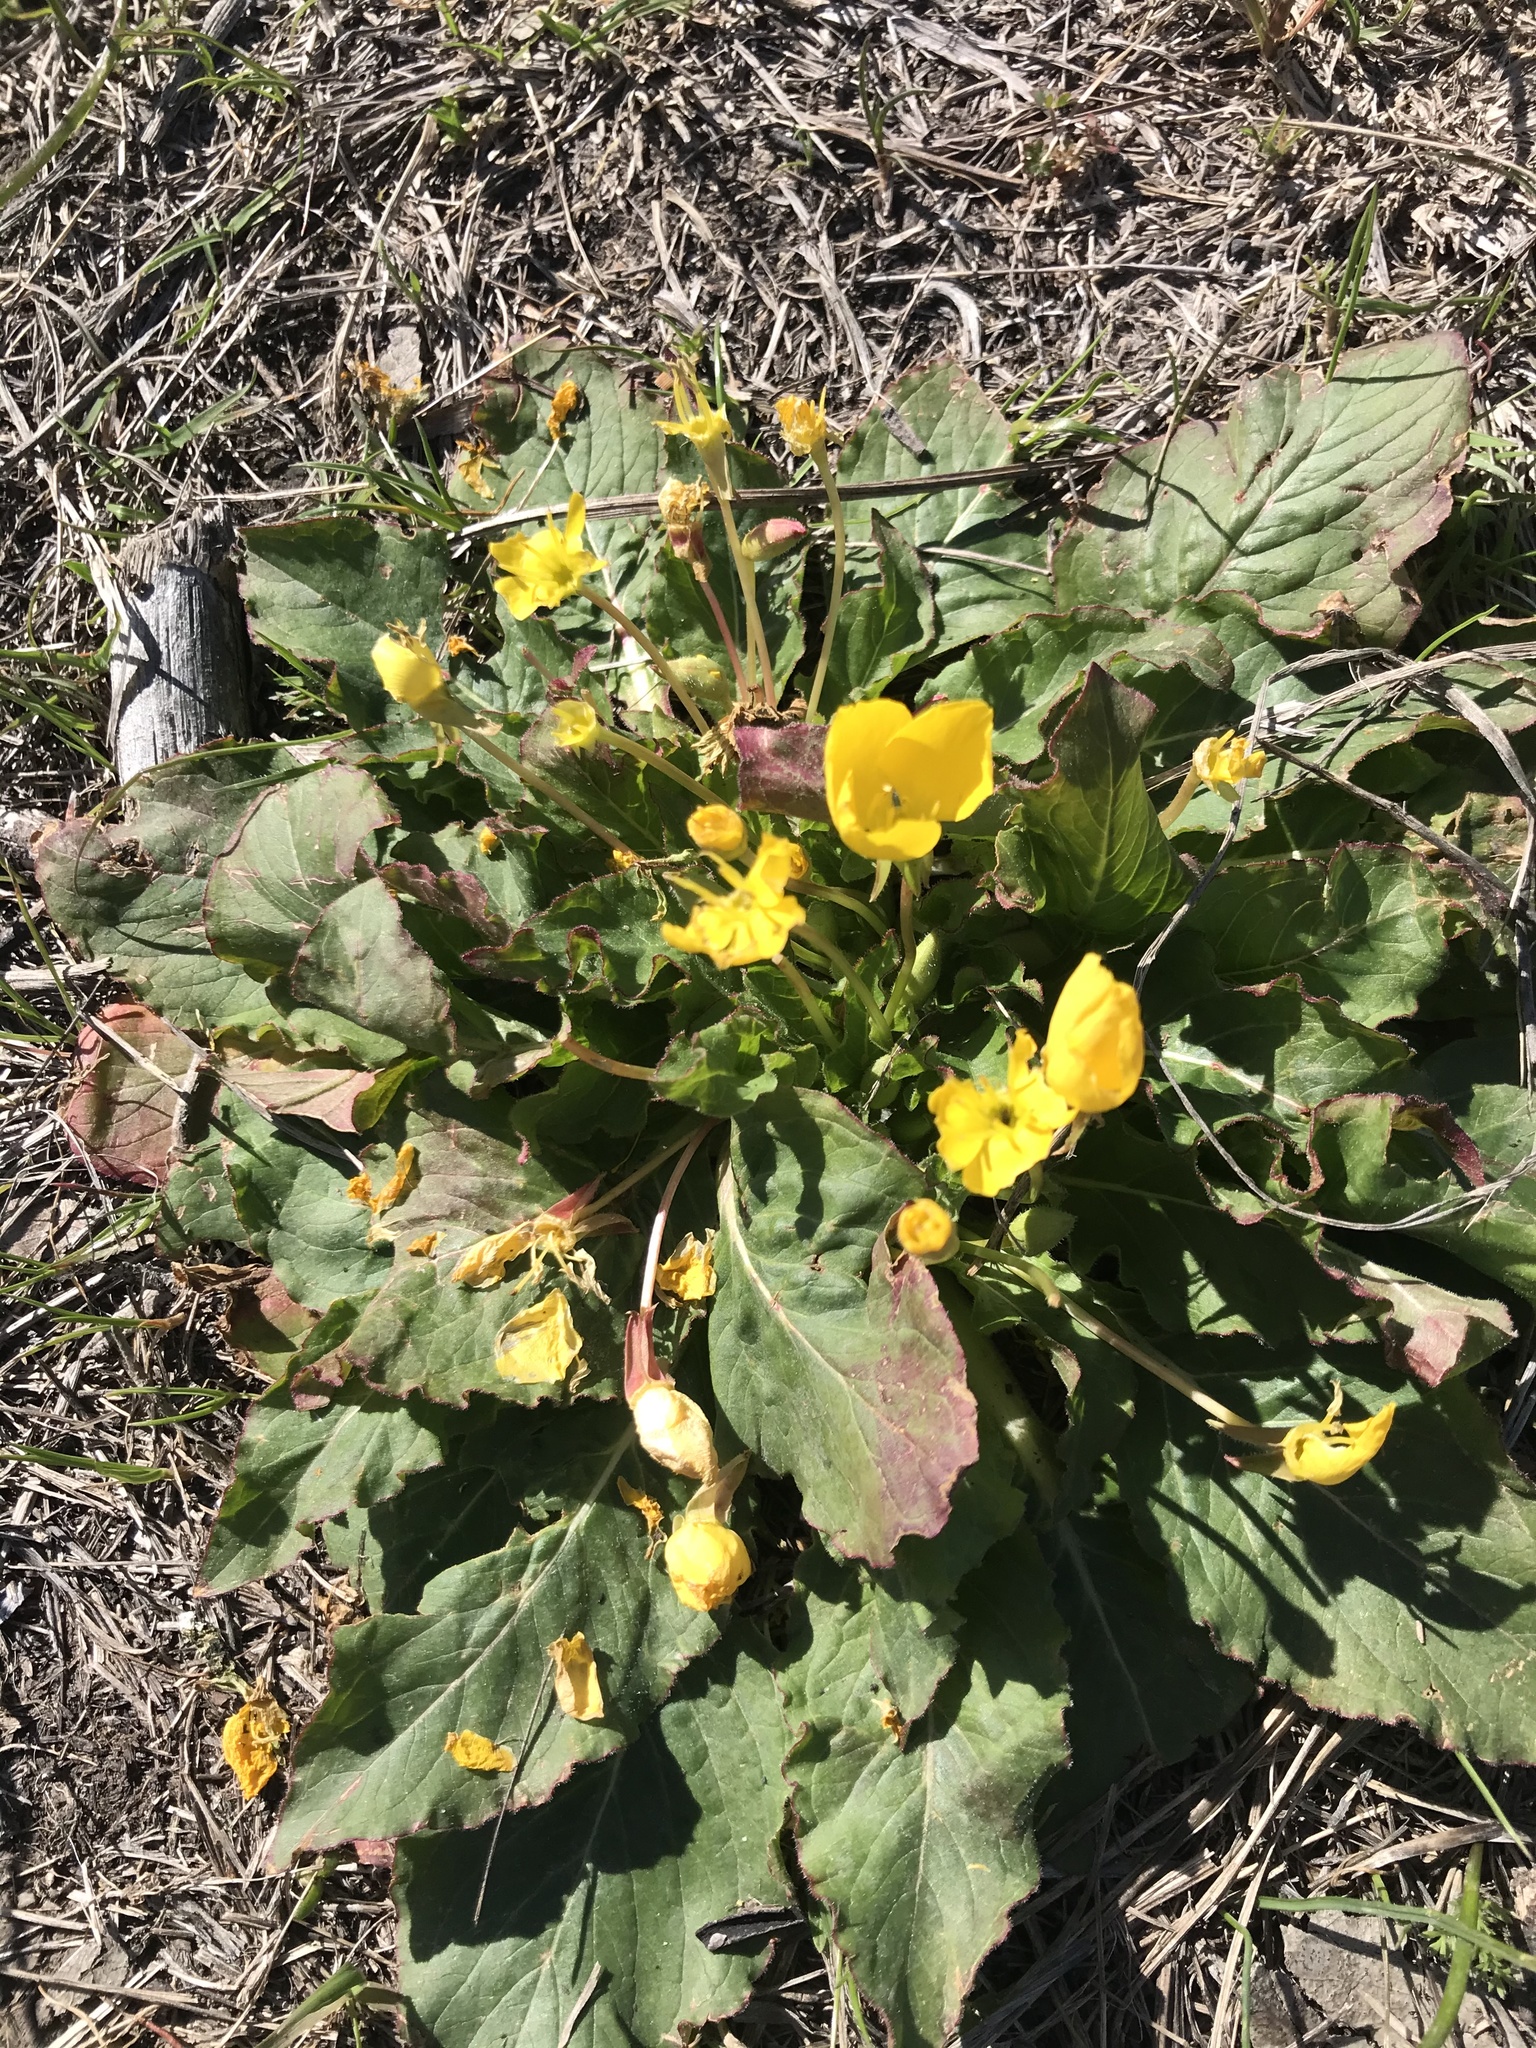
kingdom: Plantae
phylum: Tracheophyta
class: Magnoliopsida
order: Myrtales
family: Onagraceae
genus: Taraxia
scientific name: Taraxia ovata
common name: Goldeneggs
